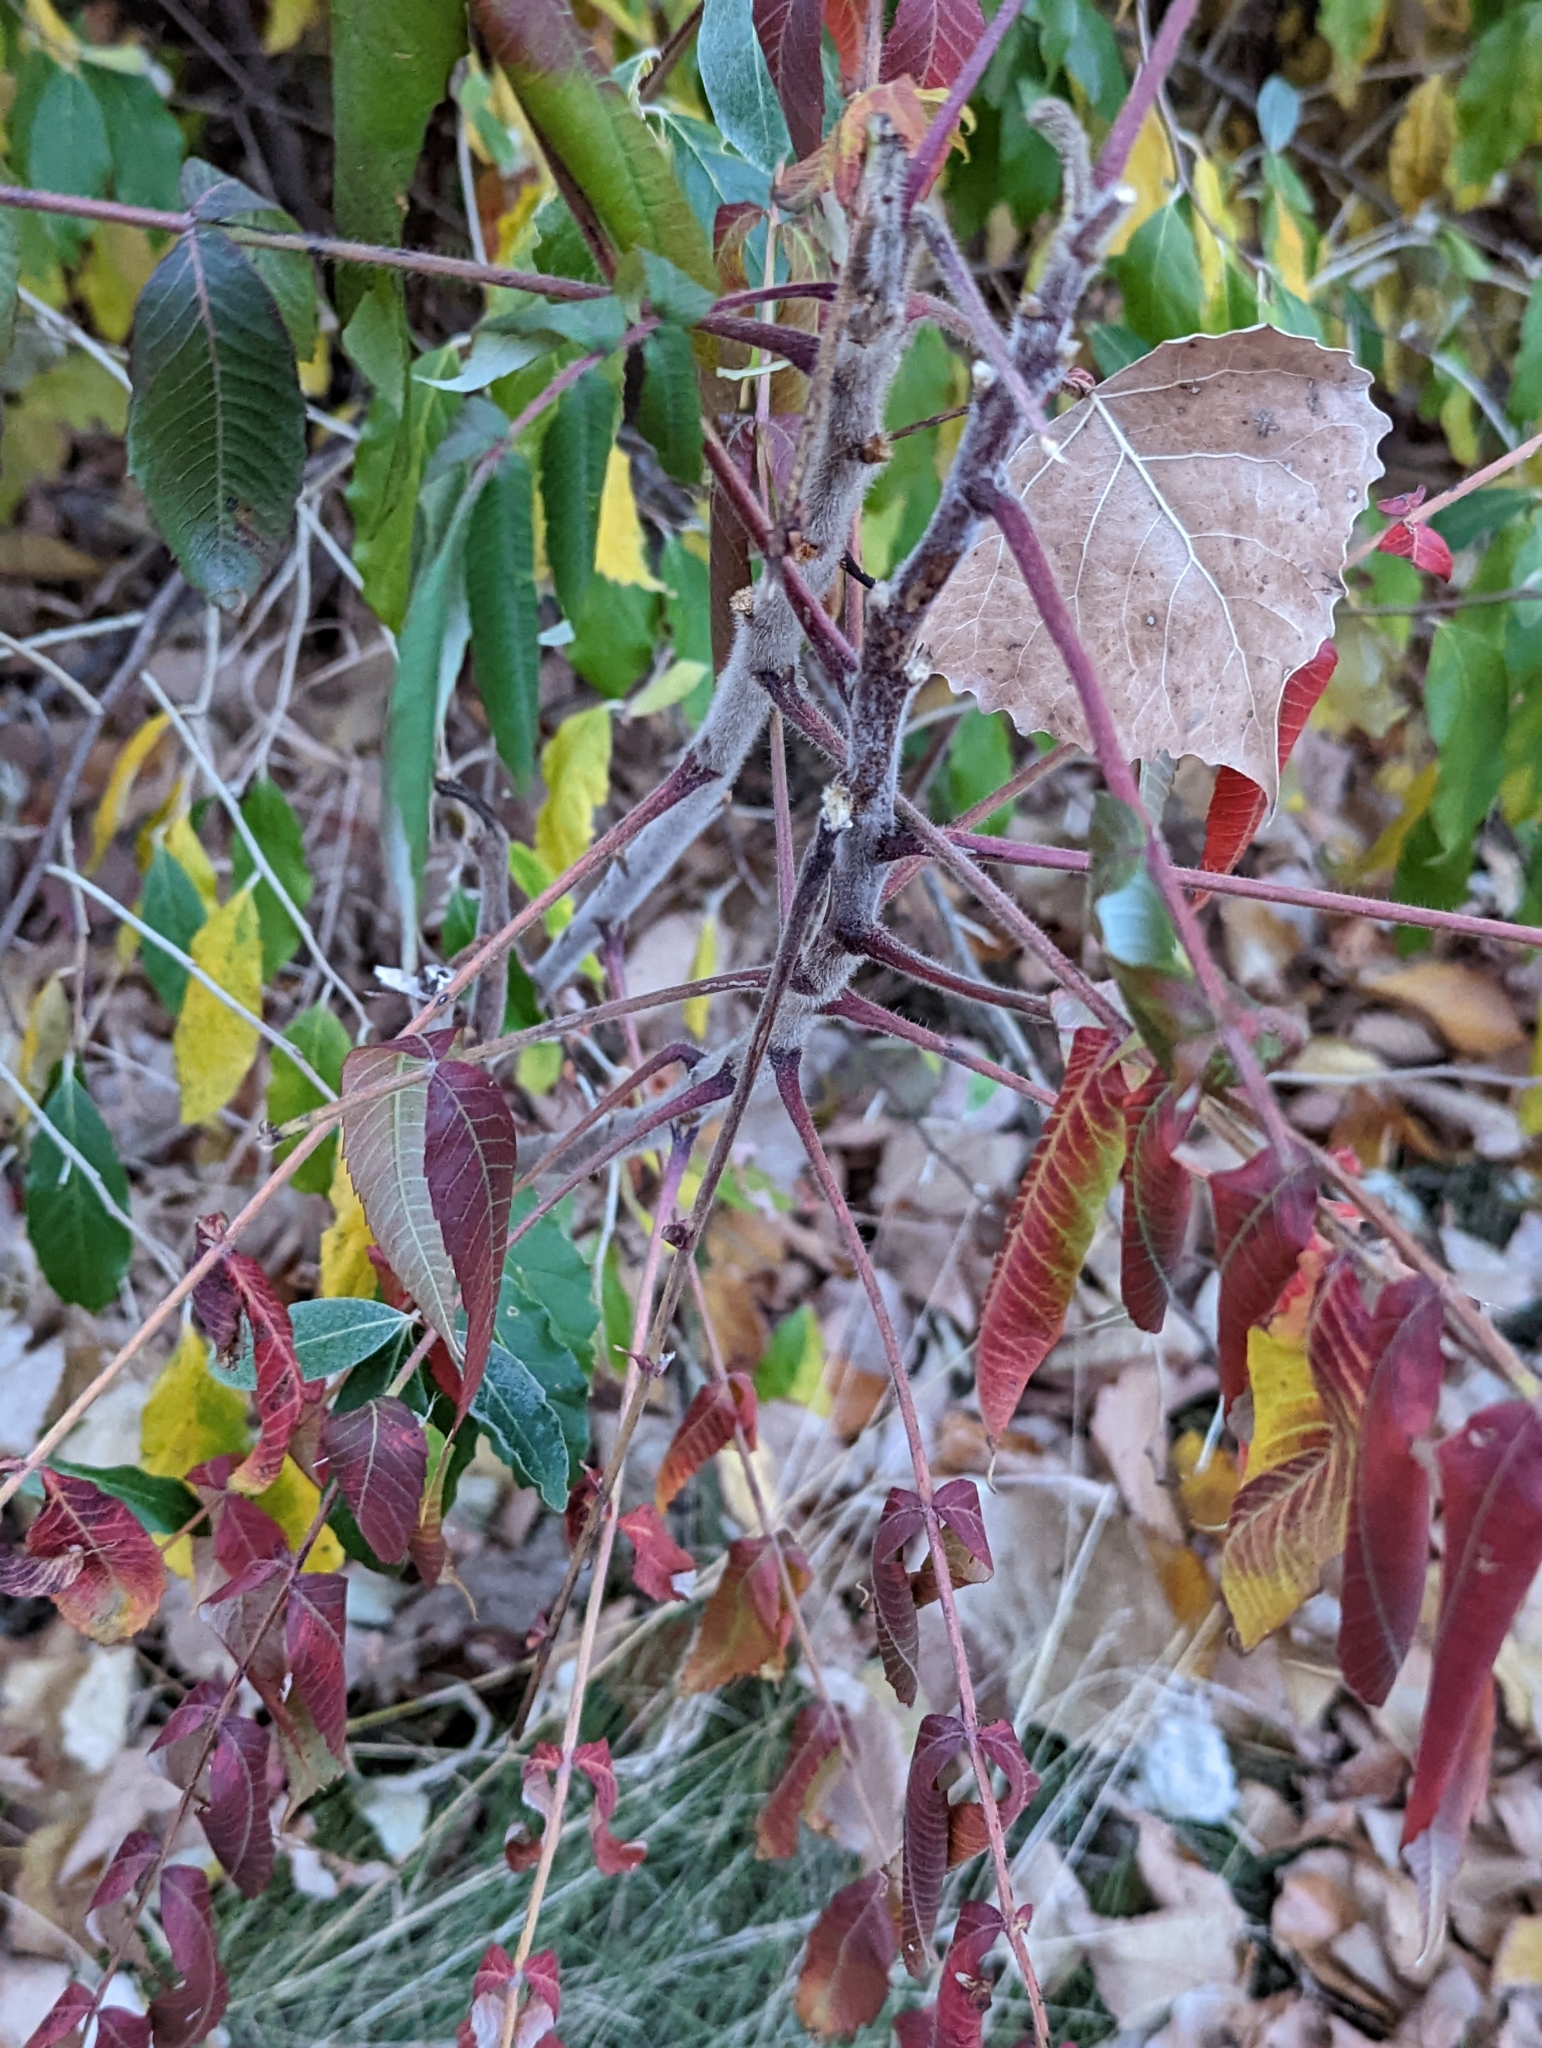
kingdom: Plantae
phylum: Tracheophyta
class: Magnoliopsida
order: Sapindales
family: Anacardiaceae
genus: Rhus
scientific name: Rhus typhina
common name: Staghorn sumac
